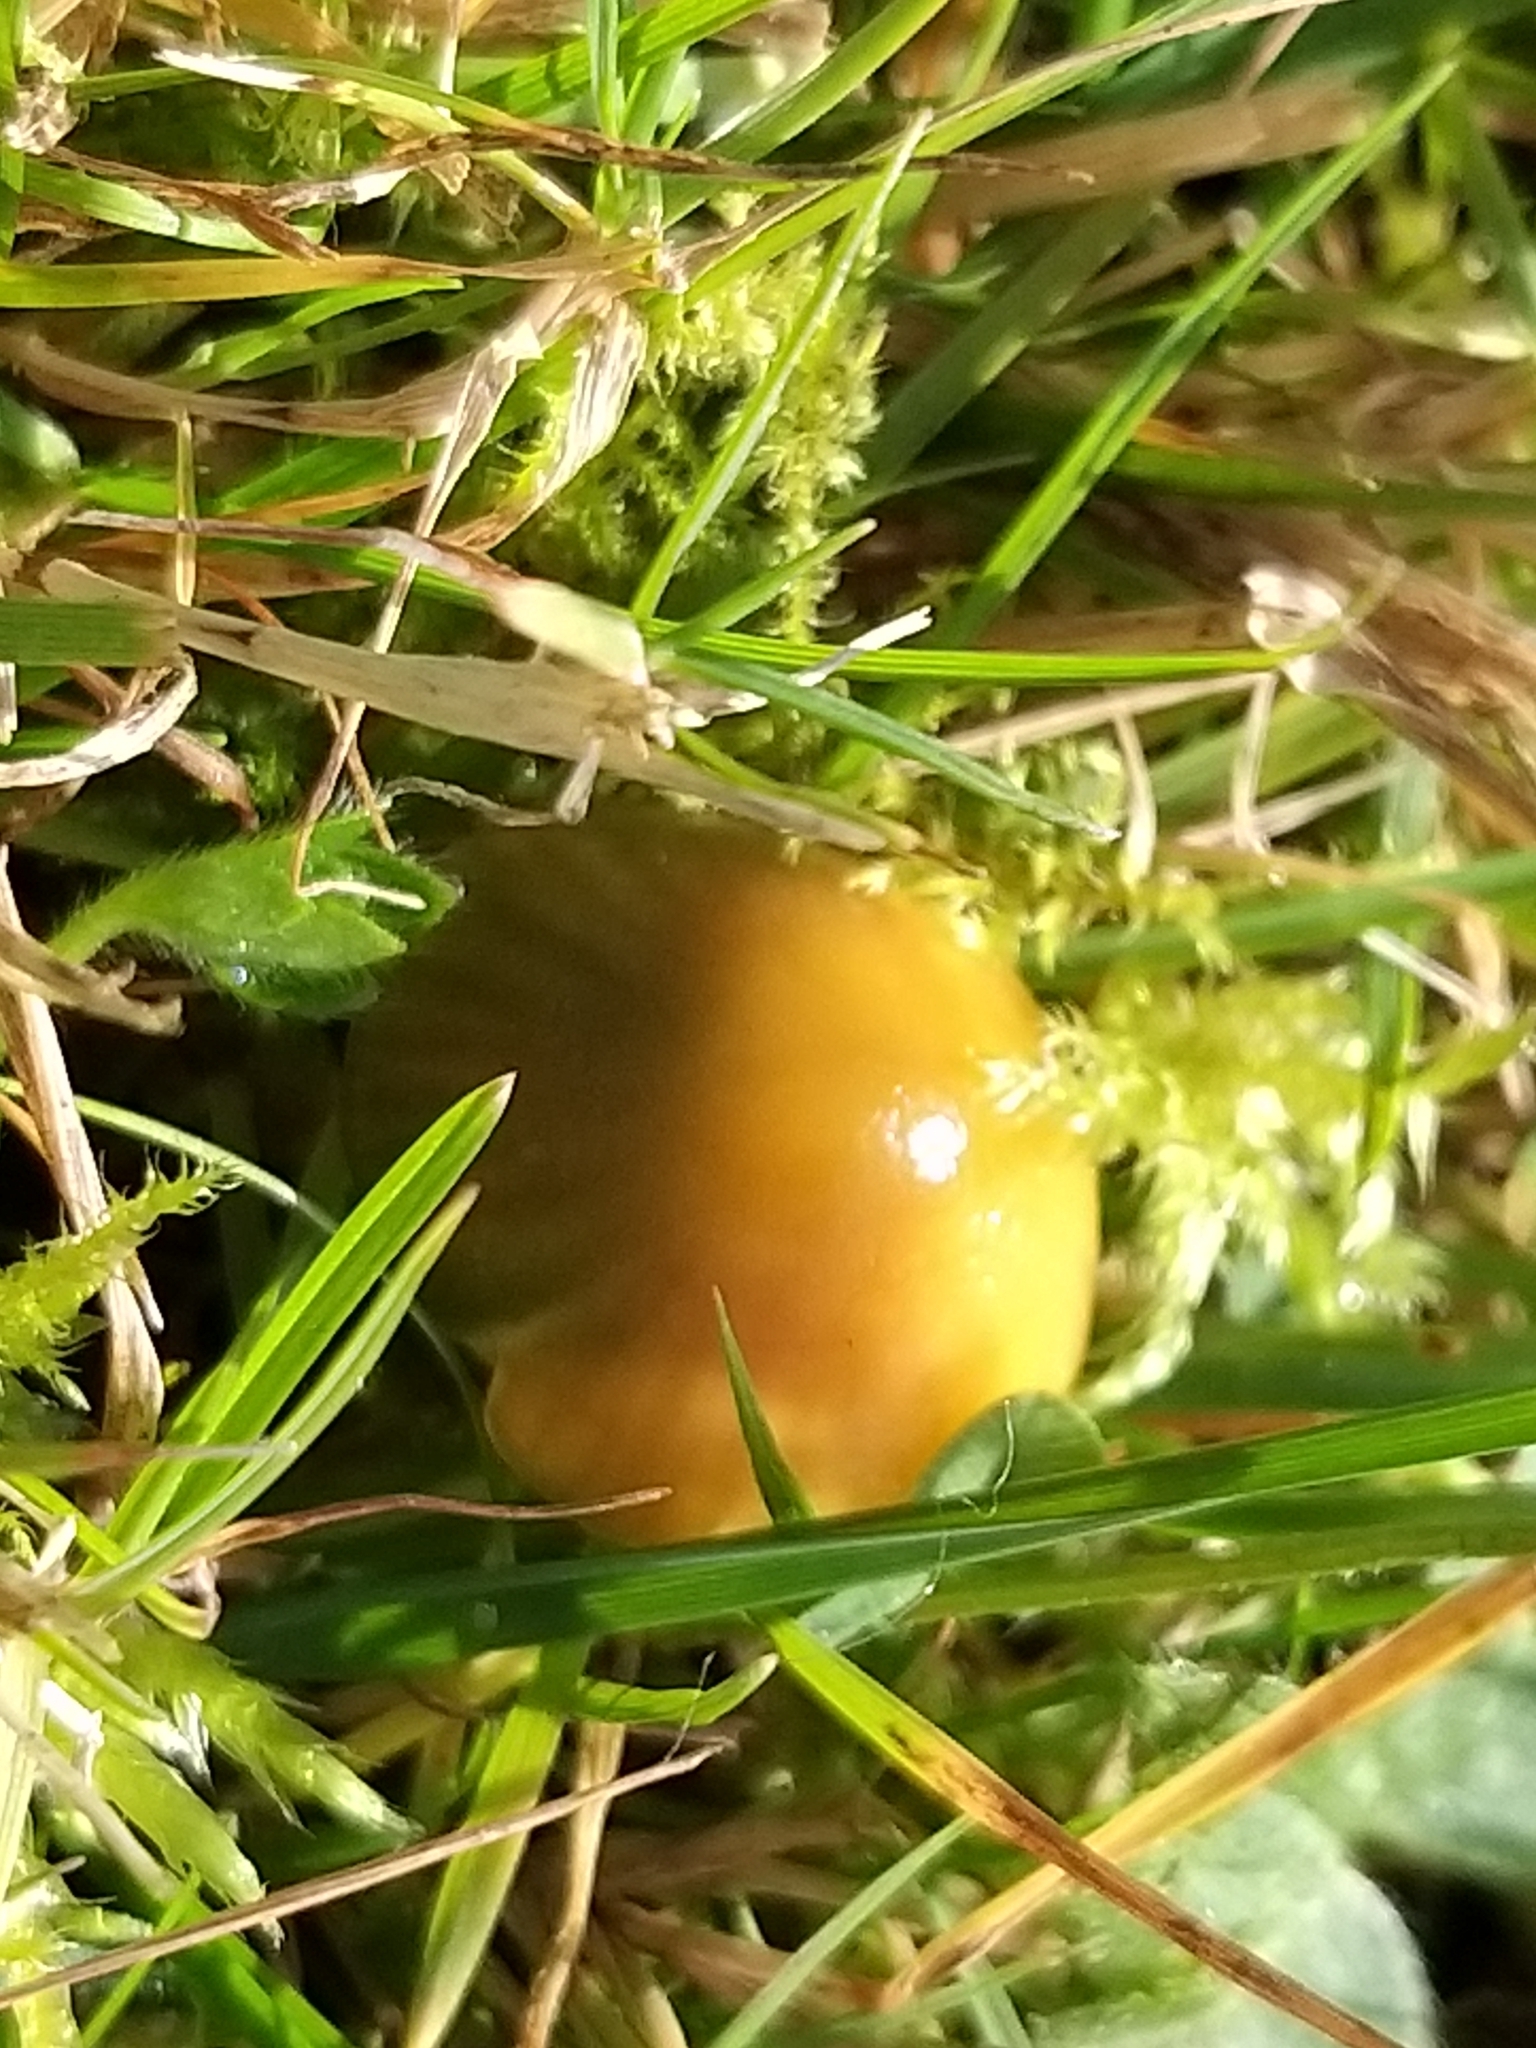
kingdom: Fungi
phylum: Basidiomycota
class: Agaricomycetes
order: Agaricales
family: Hygrophoraceae
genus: Gliophorus
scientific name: Gliophorus psittacinus
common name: Parrot wax-cap
